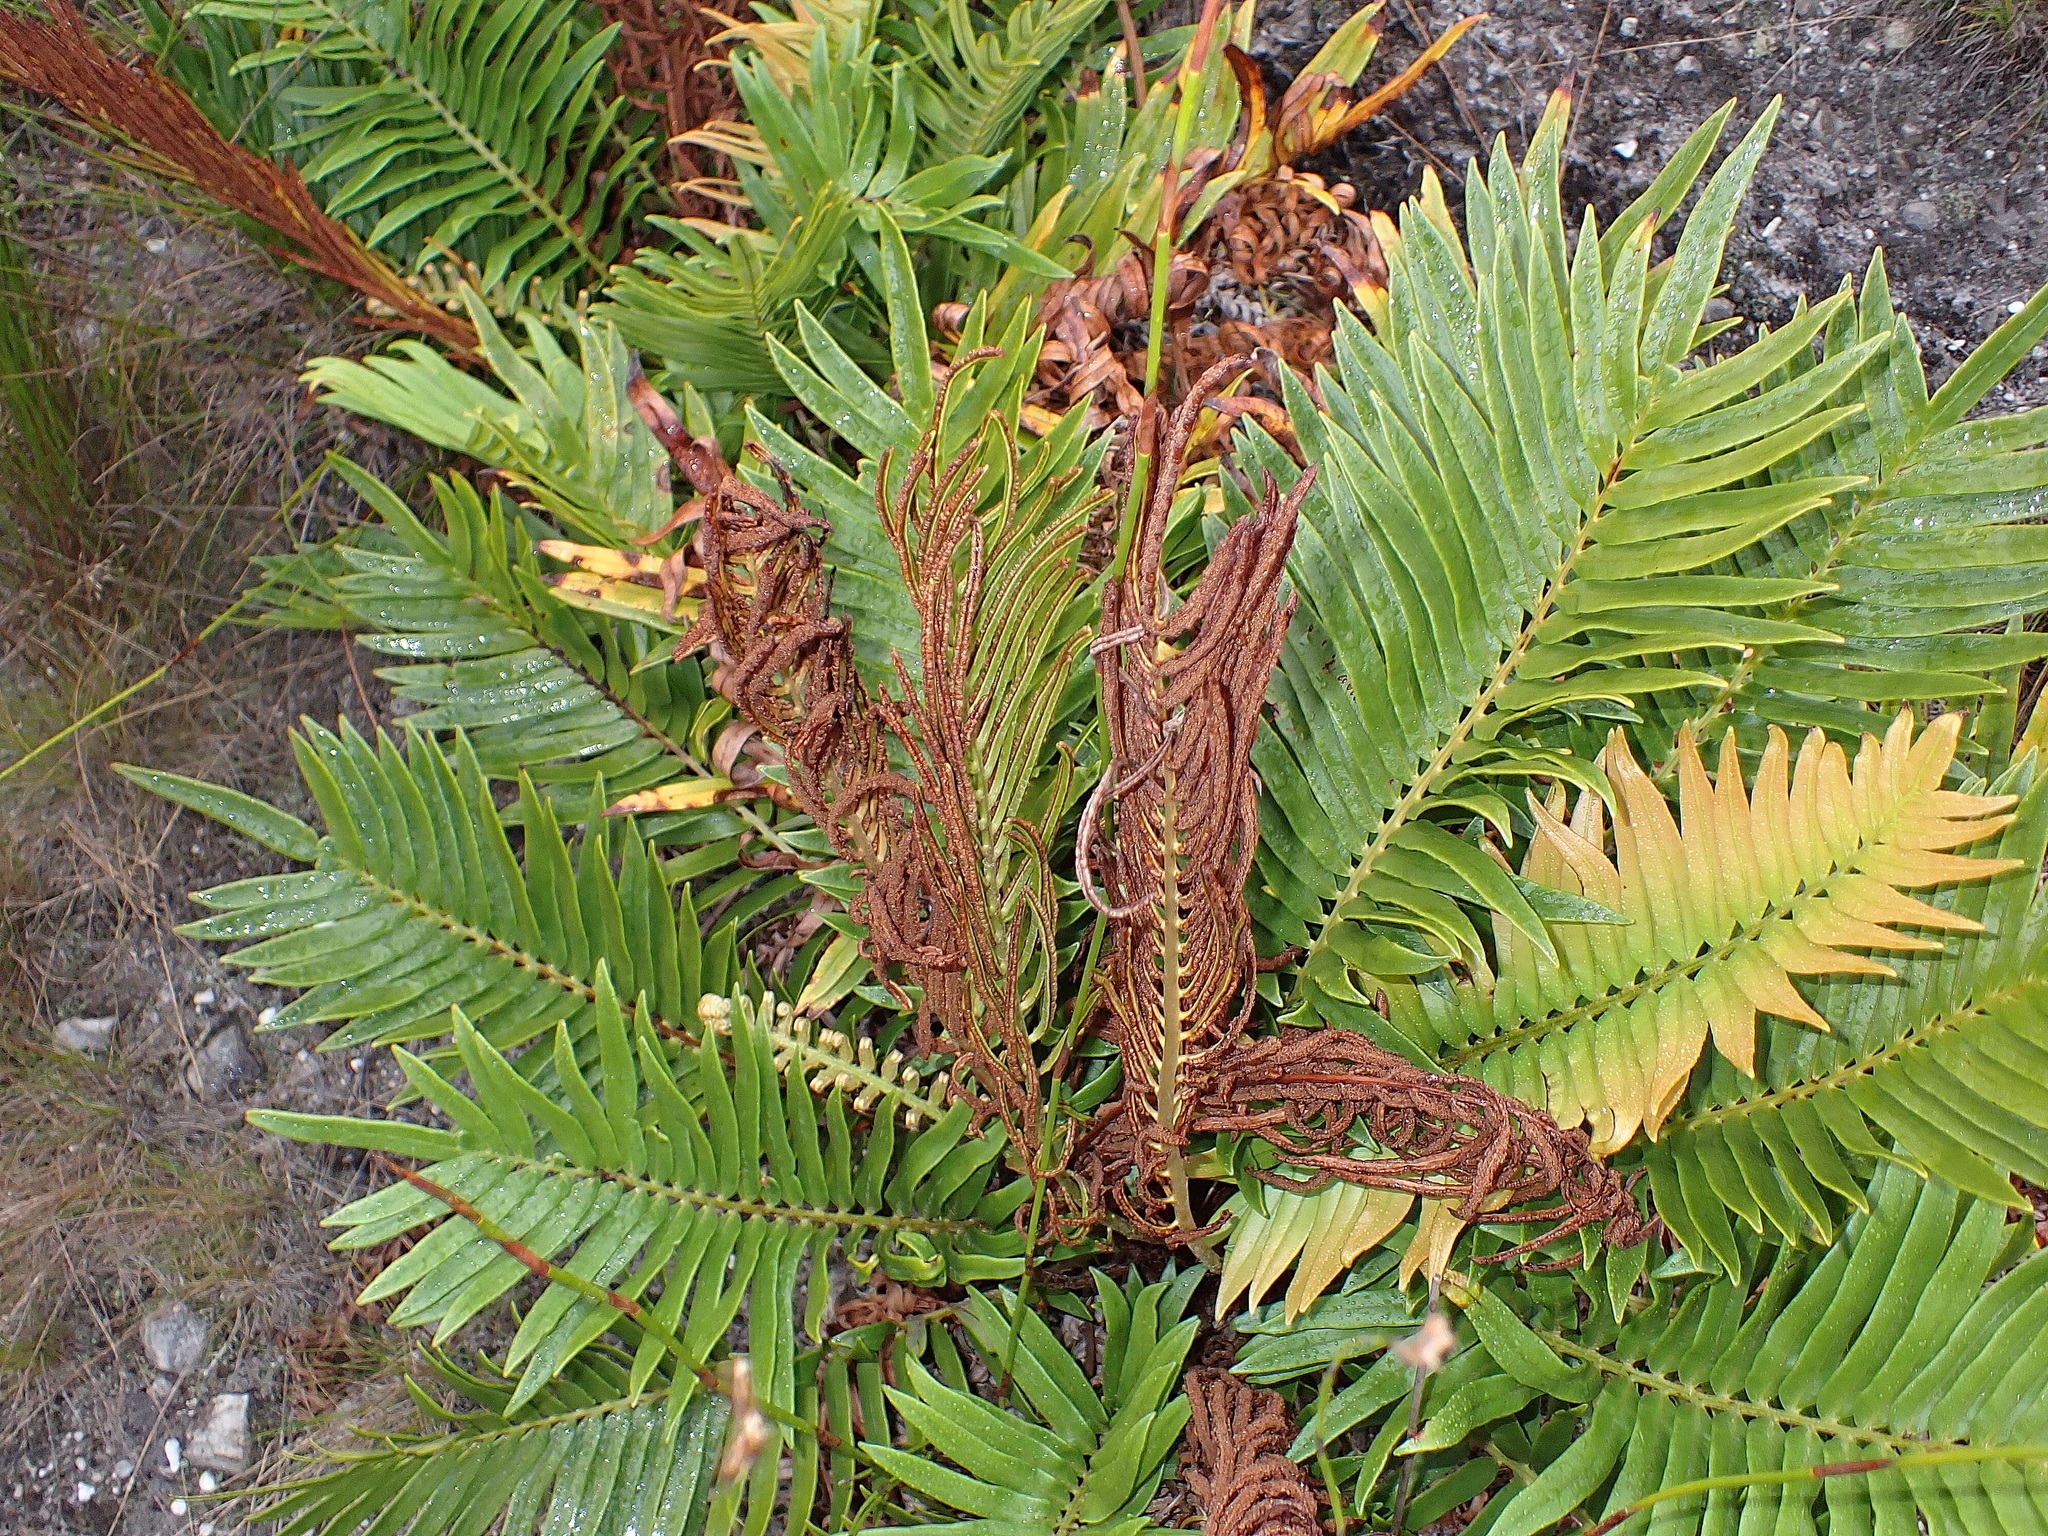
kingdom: Plantae
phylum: Tracheophyta
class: Polypodiopsida
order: Polypodiales
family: Blechnaceae
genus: Lomariocycas
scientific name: Lomariocycas tabularis
